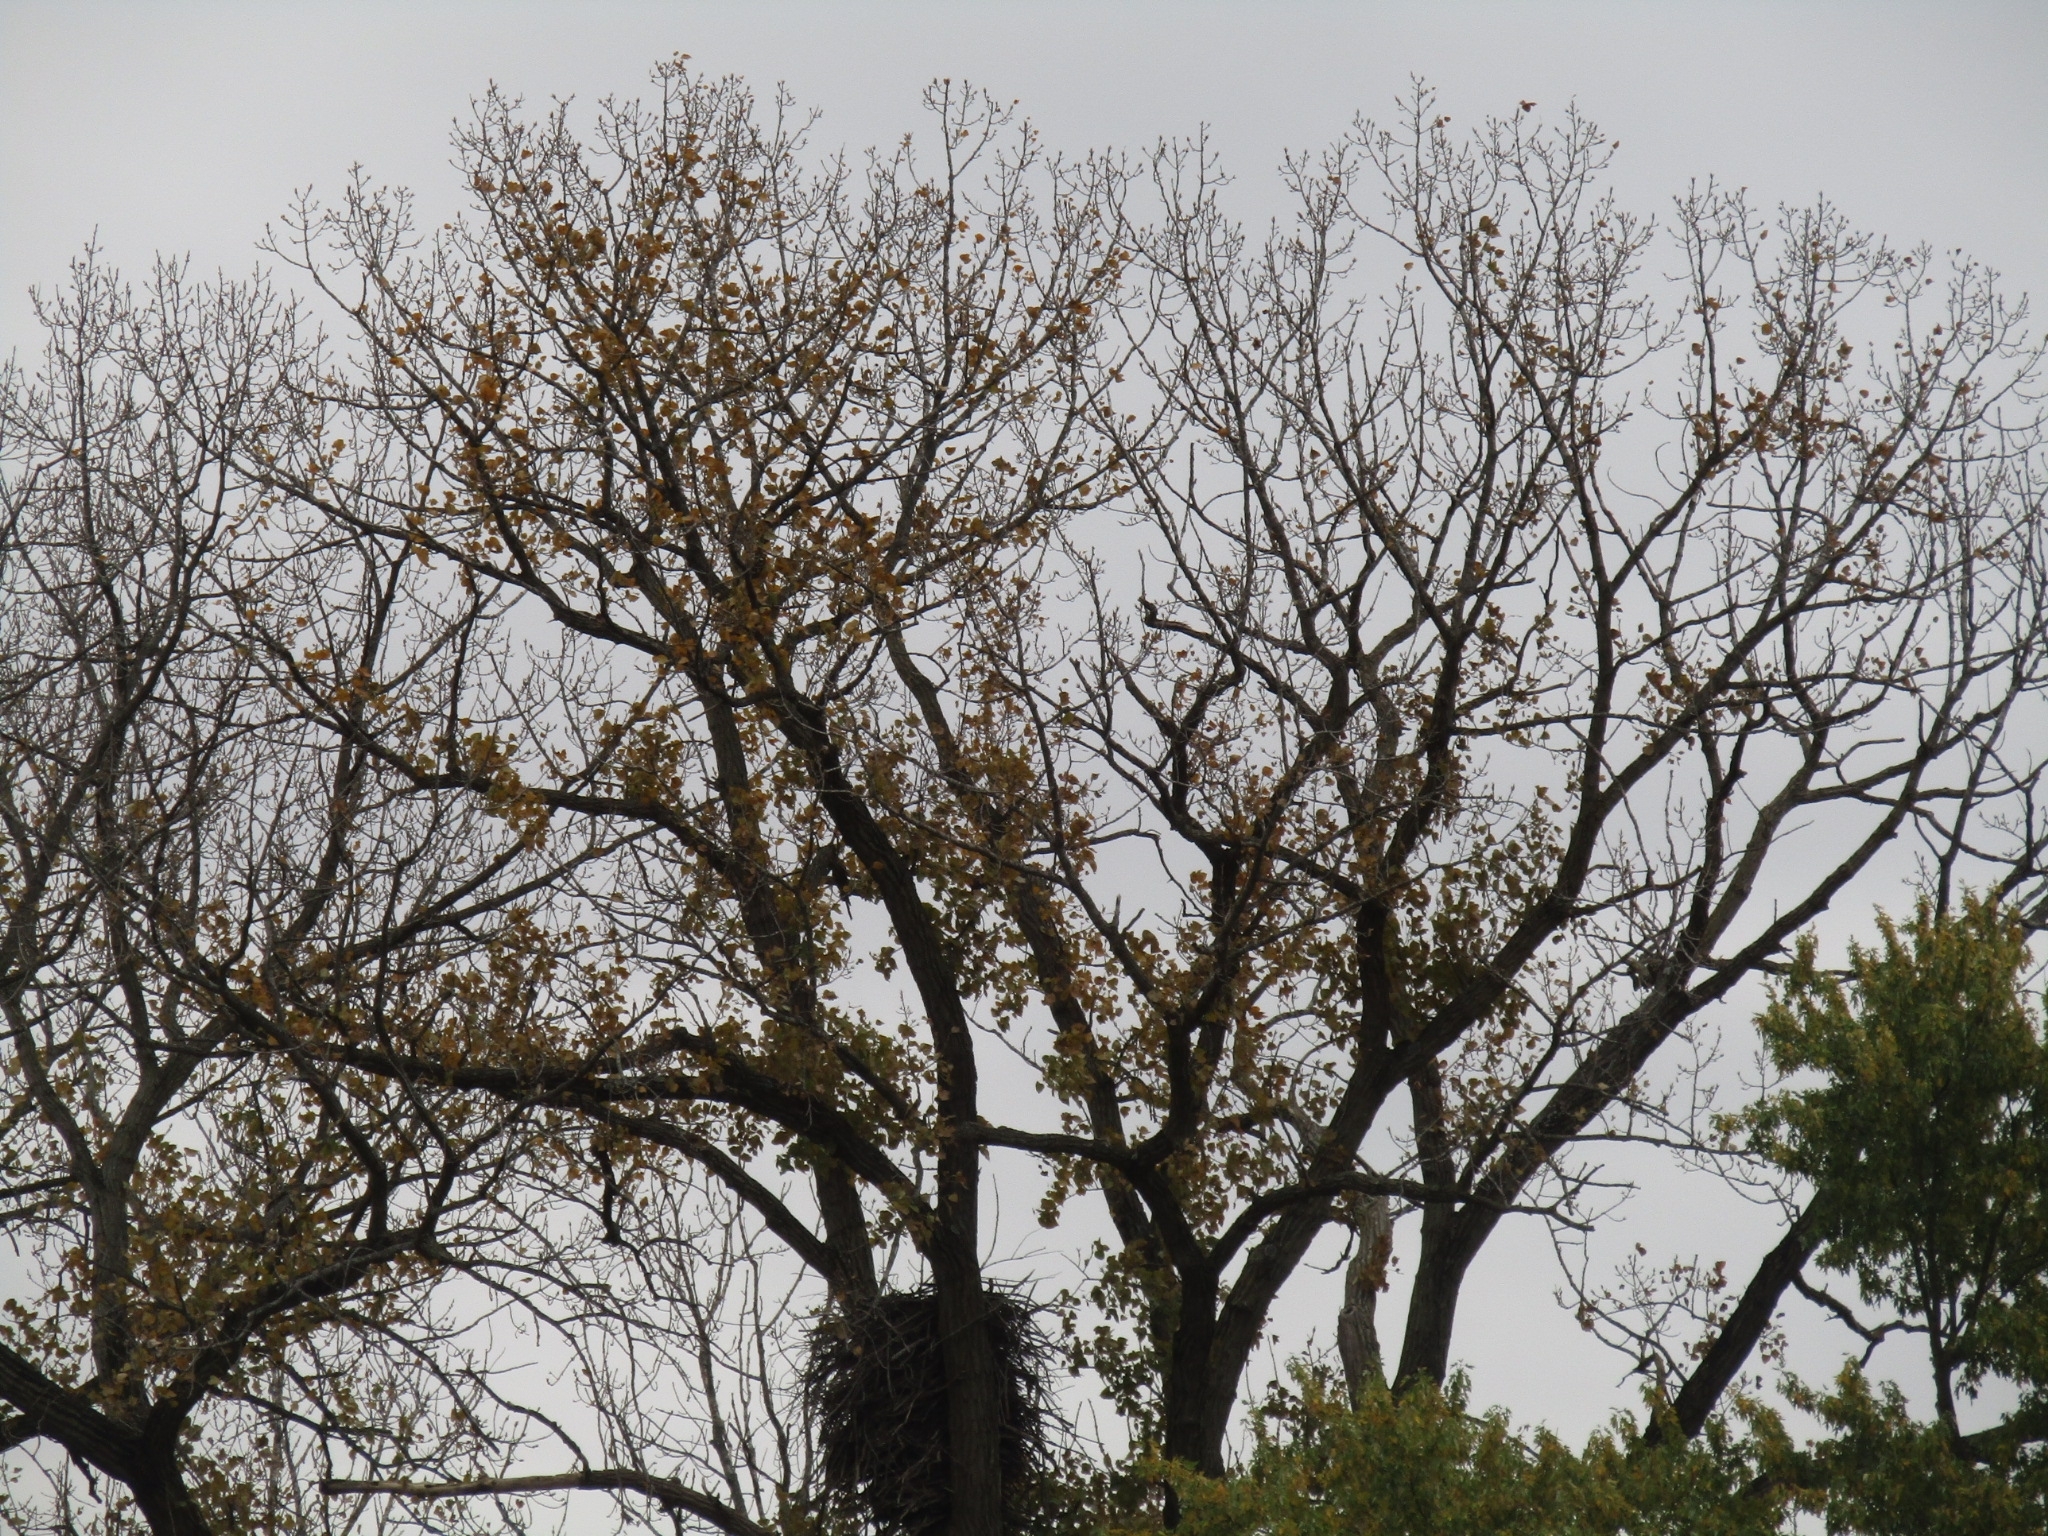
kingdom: Animalia
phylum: Chordata
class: Aves
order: Accipitriformes
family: Accipitridae
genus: Haliaeetus
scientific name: Haliaeetus leucocephalus
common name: Bald eagle
